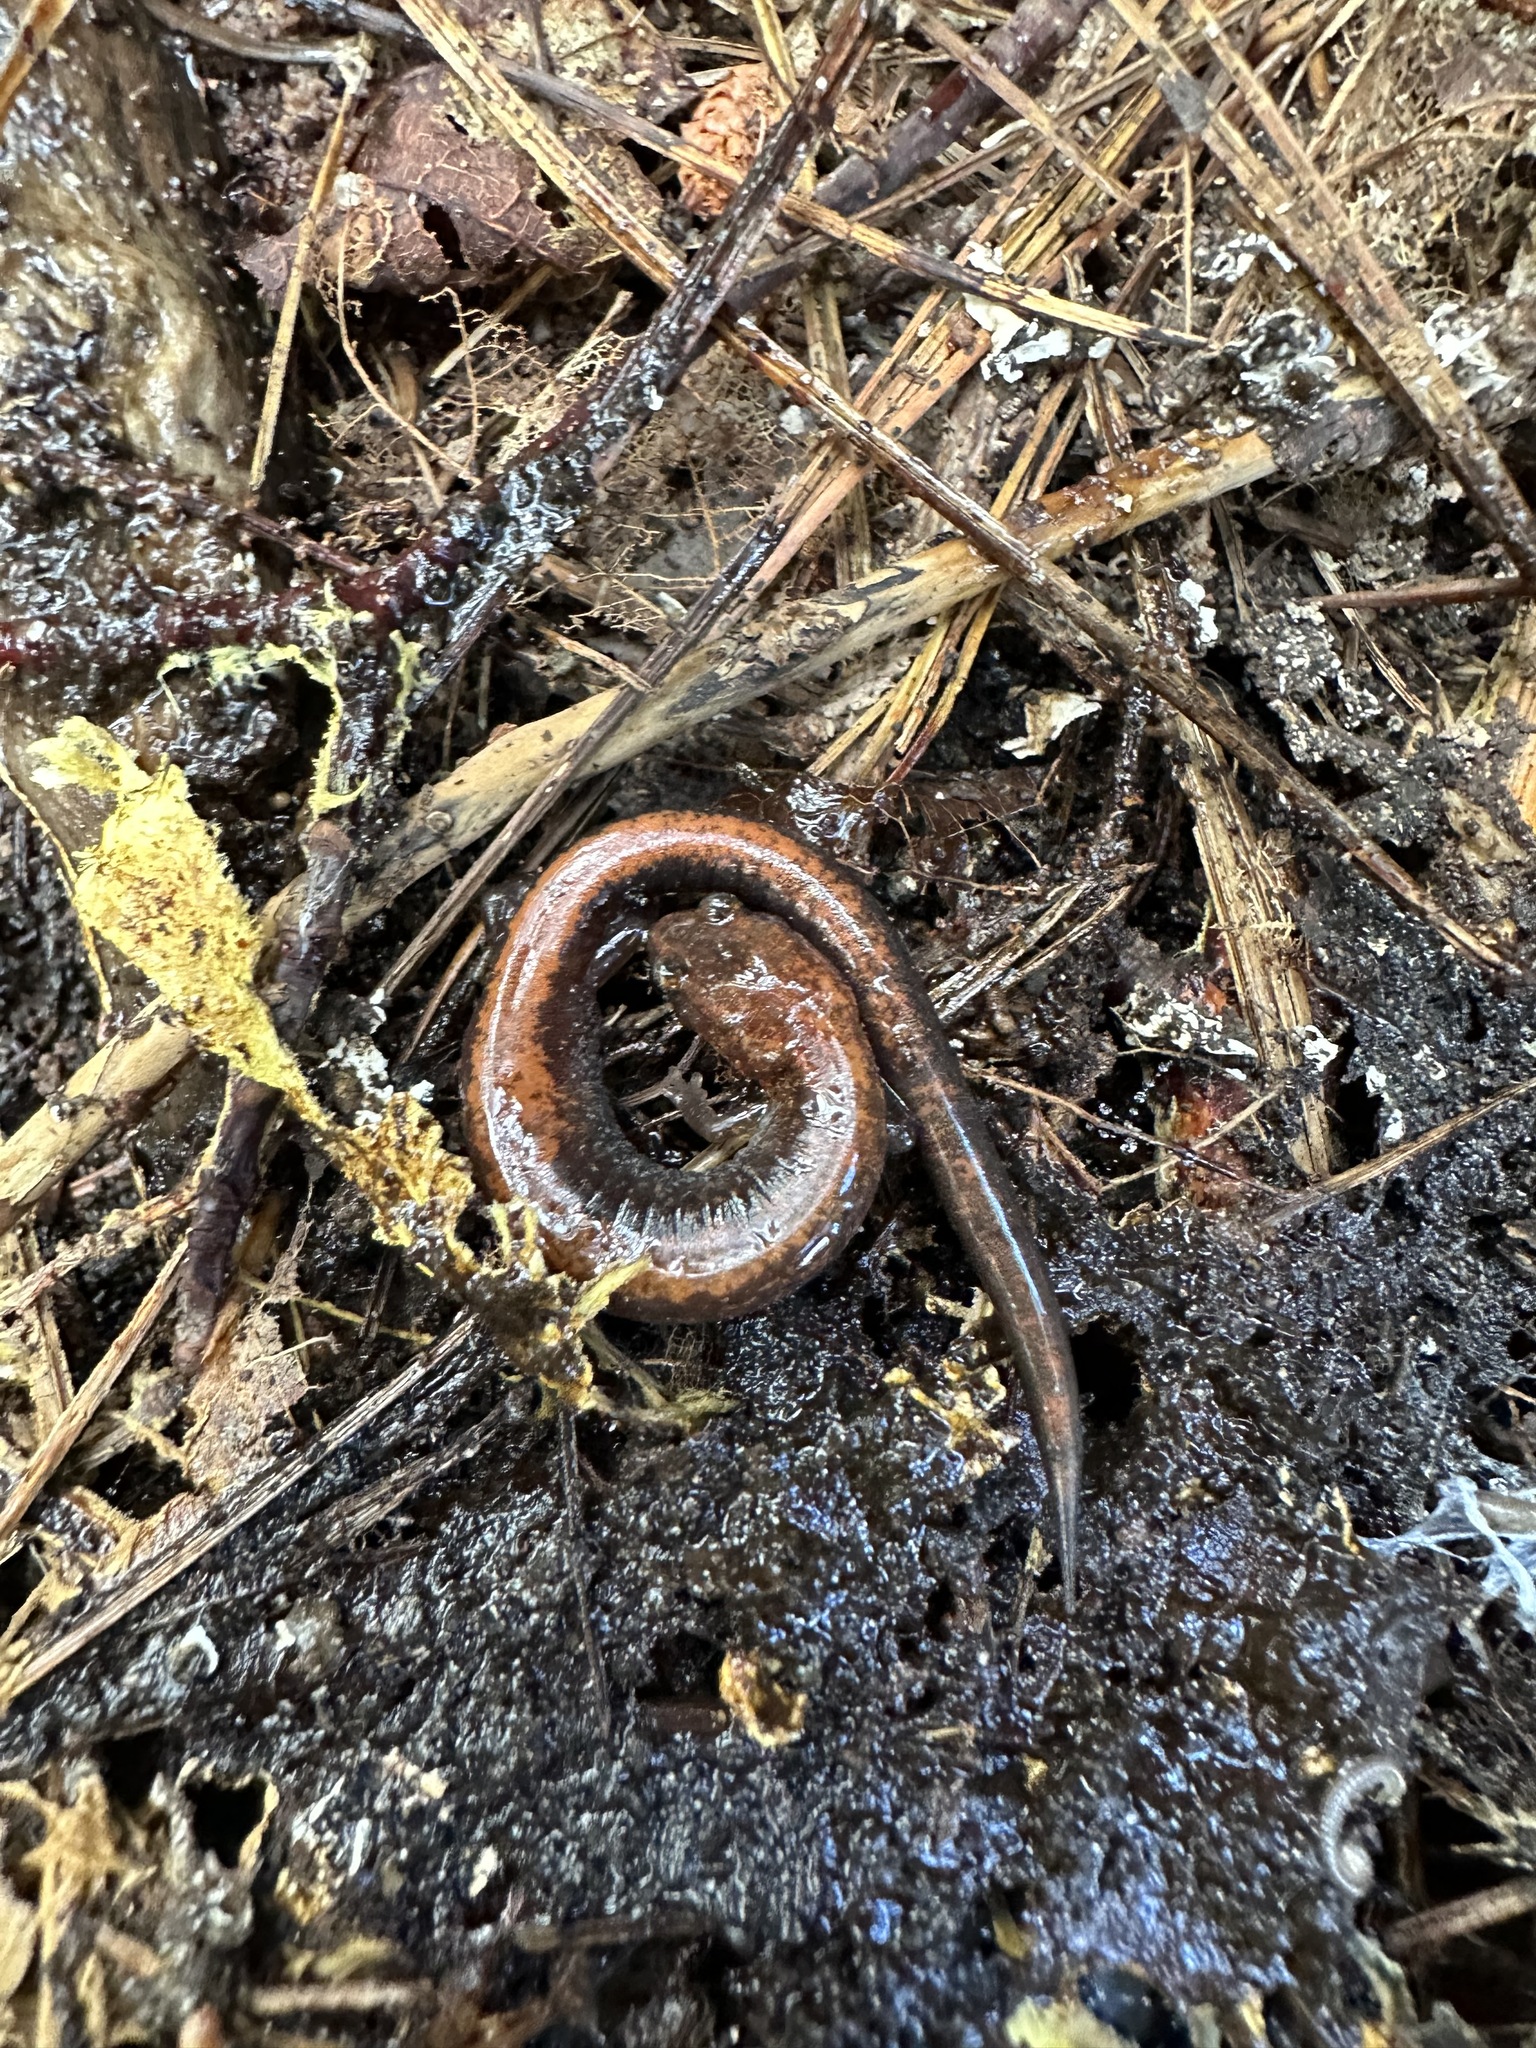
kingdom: Animalia
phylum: Chordata
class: Amphibia
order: Caudata
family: Plethodontidae
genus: Plethodon
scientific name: Plethodon cinereus
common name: Redback salamander
